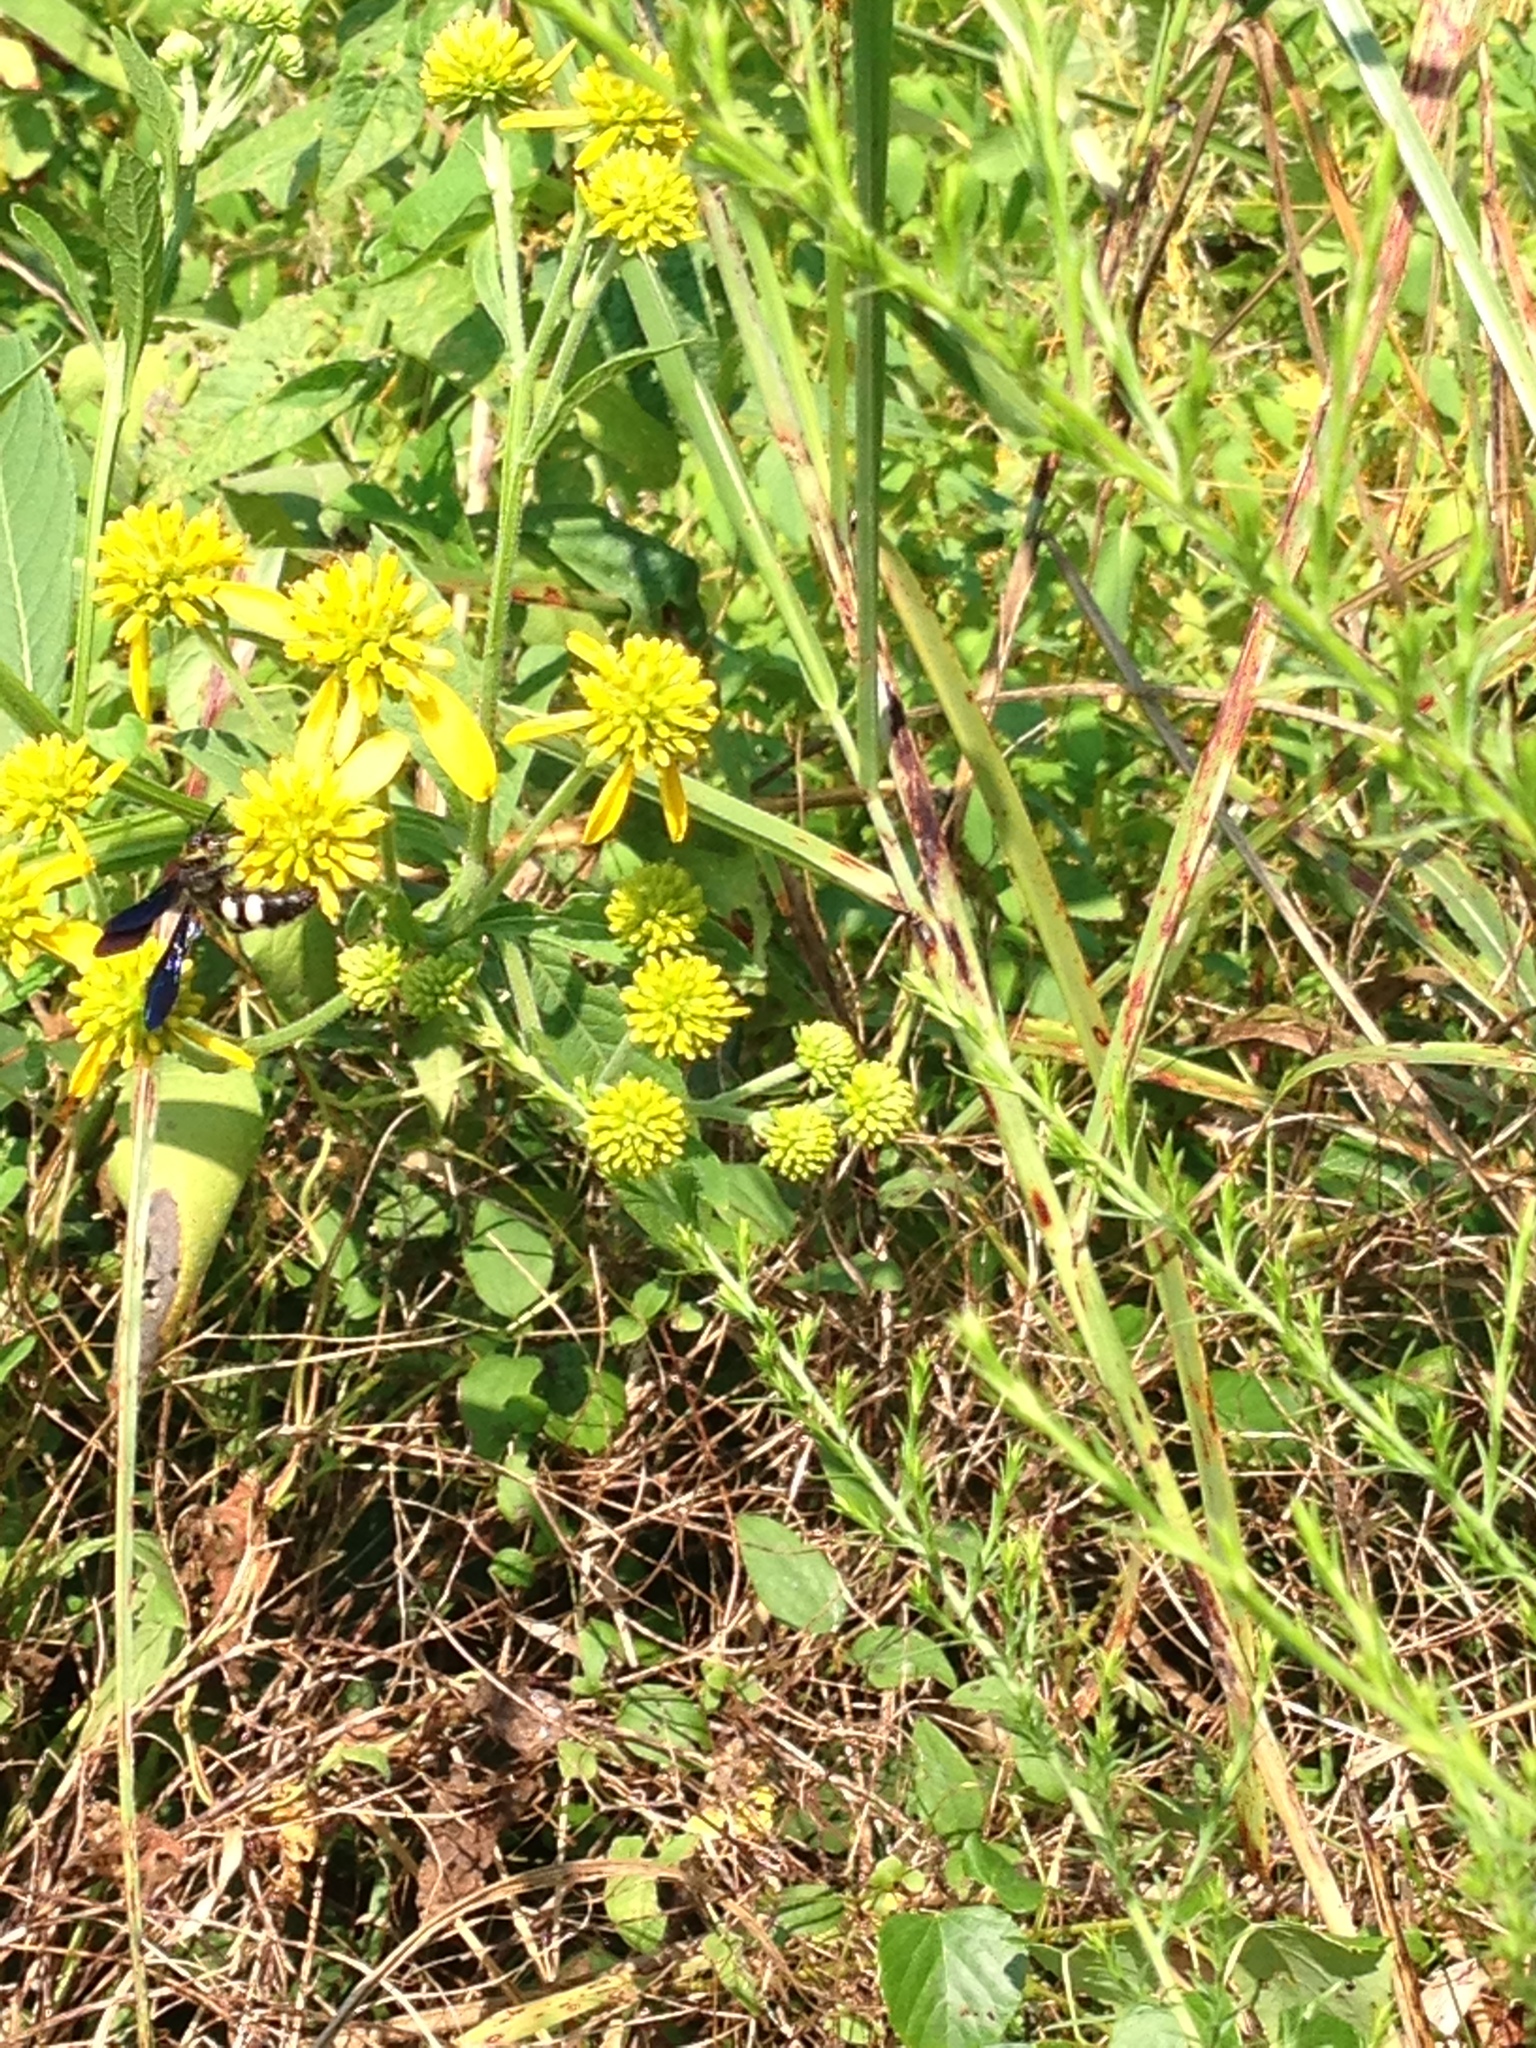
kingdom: Plantae
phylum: Tracheophyta
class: Magnoliopsida
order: Asterales
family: Asteraceae
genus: Verbesina
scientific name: Verbesina alternifolia
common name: Wingstem
